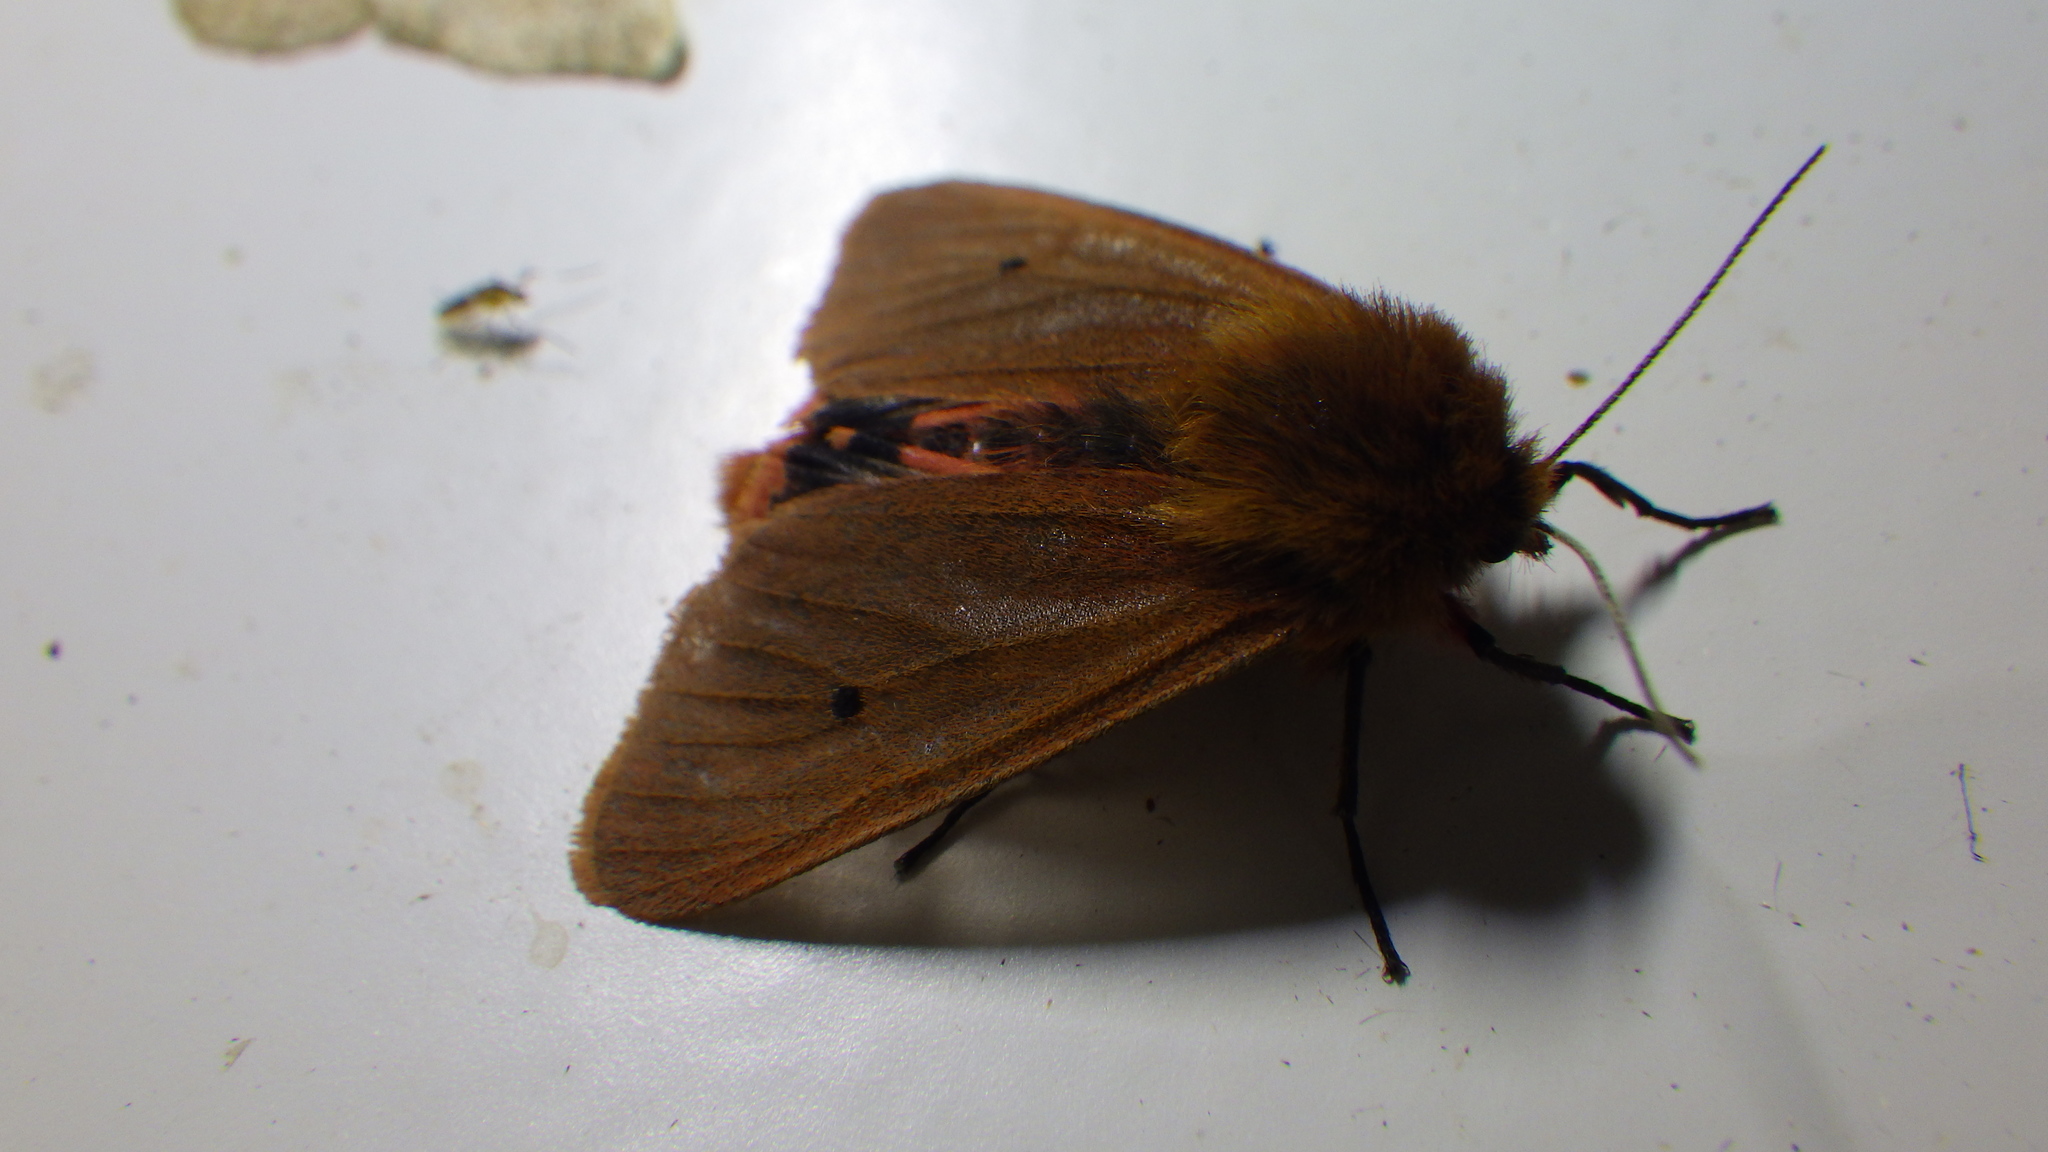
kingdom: Animalia
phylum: Arthropoda
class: Insecta
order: Lepidoptera
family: Erebidae
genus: Phragmatobia
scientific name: Phragmatobia fuliginosa
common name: Ruby tiger
